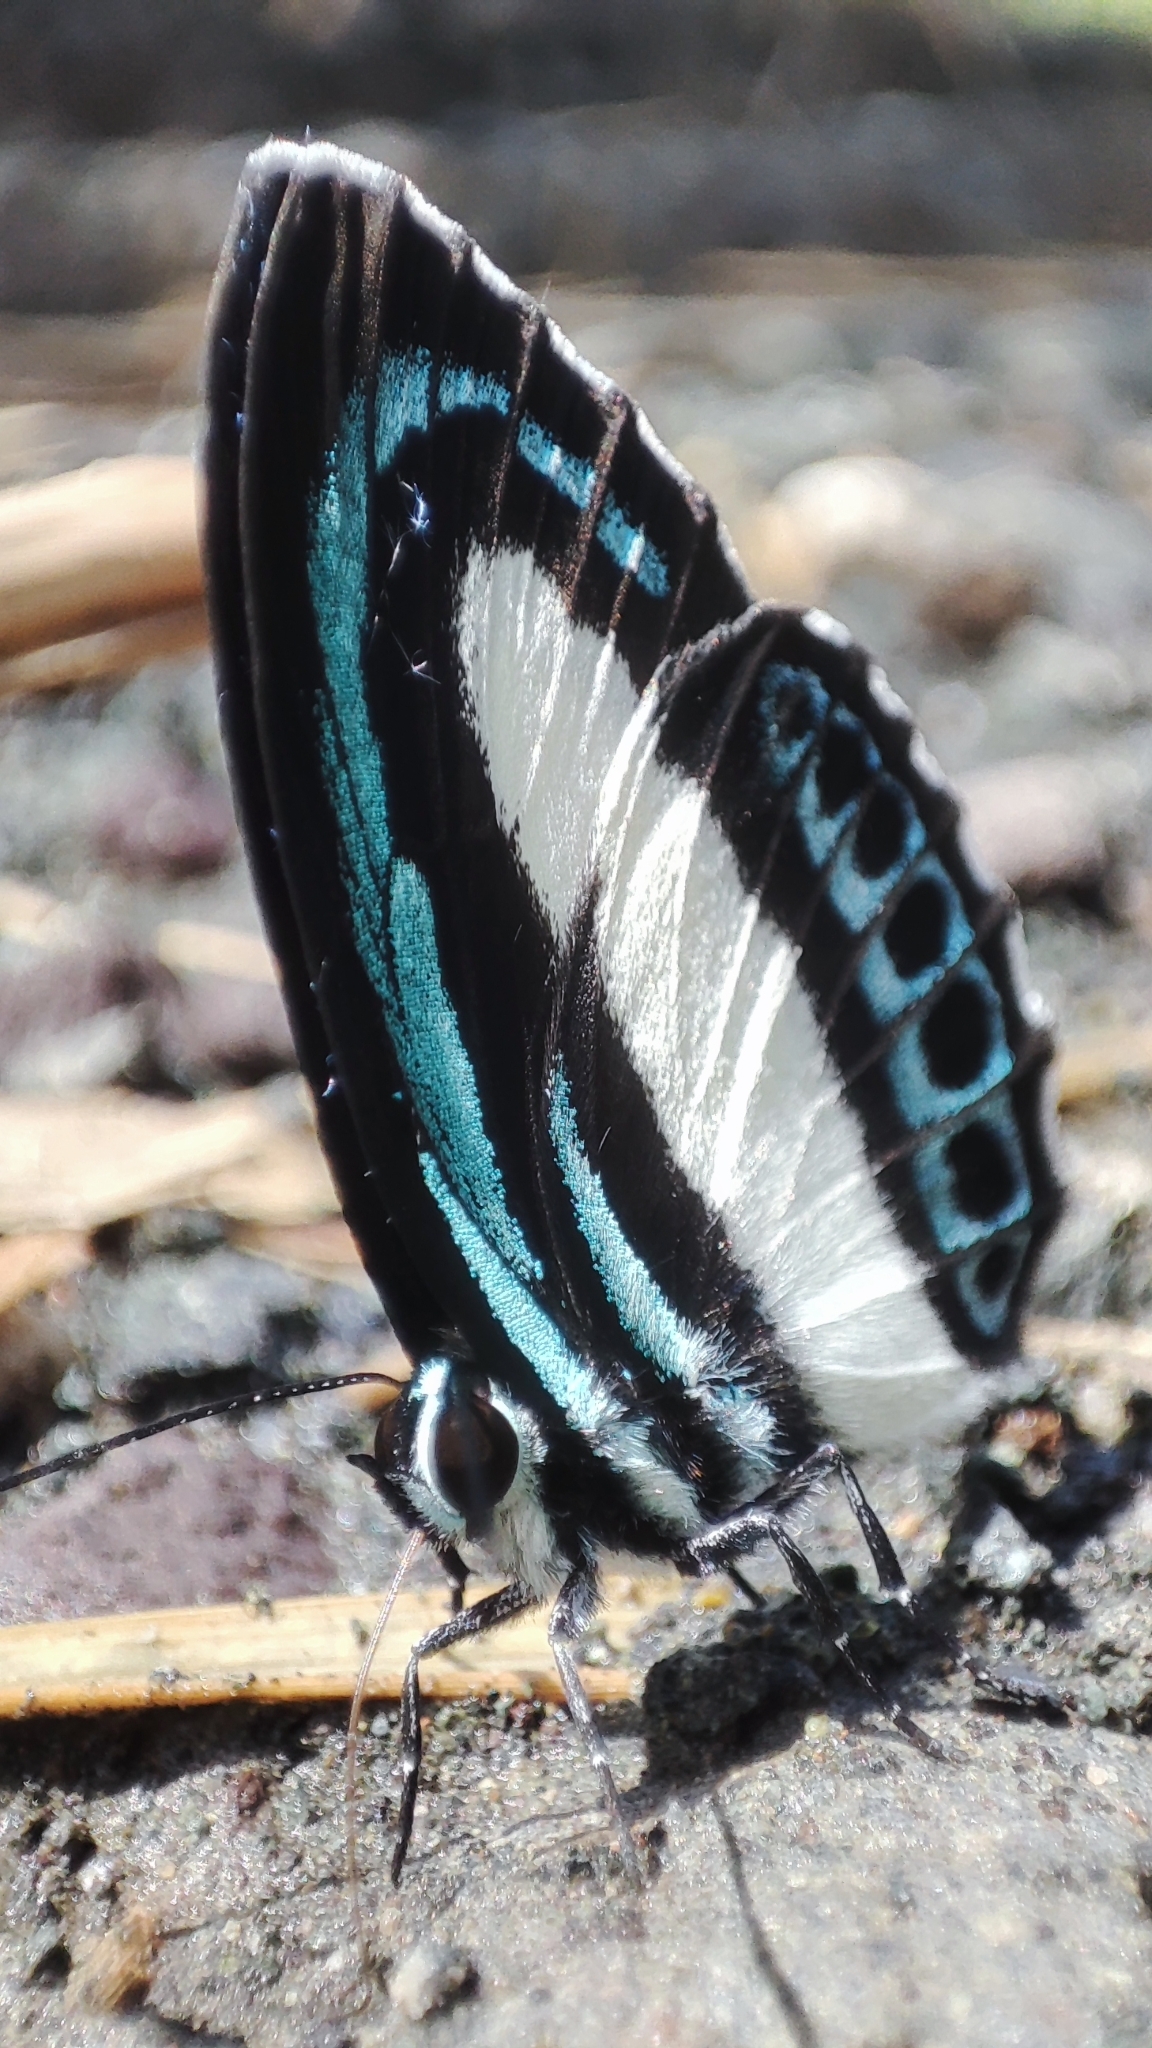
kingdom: Animalia
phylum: Arthropoda
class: Insecta
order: Lepidoptera
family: Lycaenidae
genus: Danis
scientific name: Danis danis
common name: Large green-banded blue
